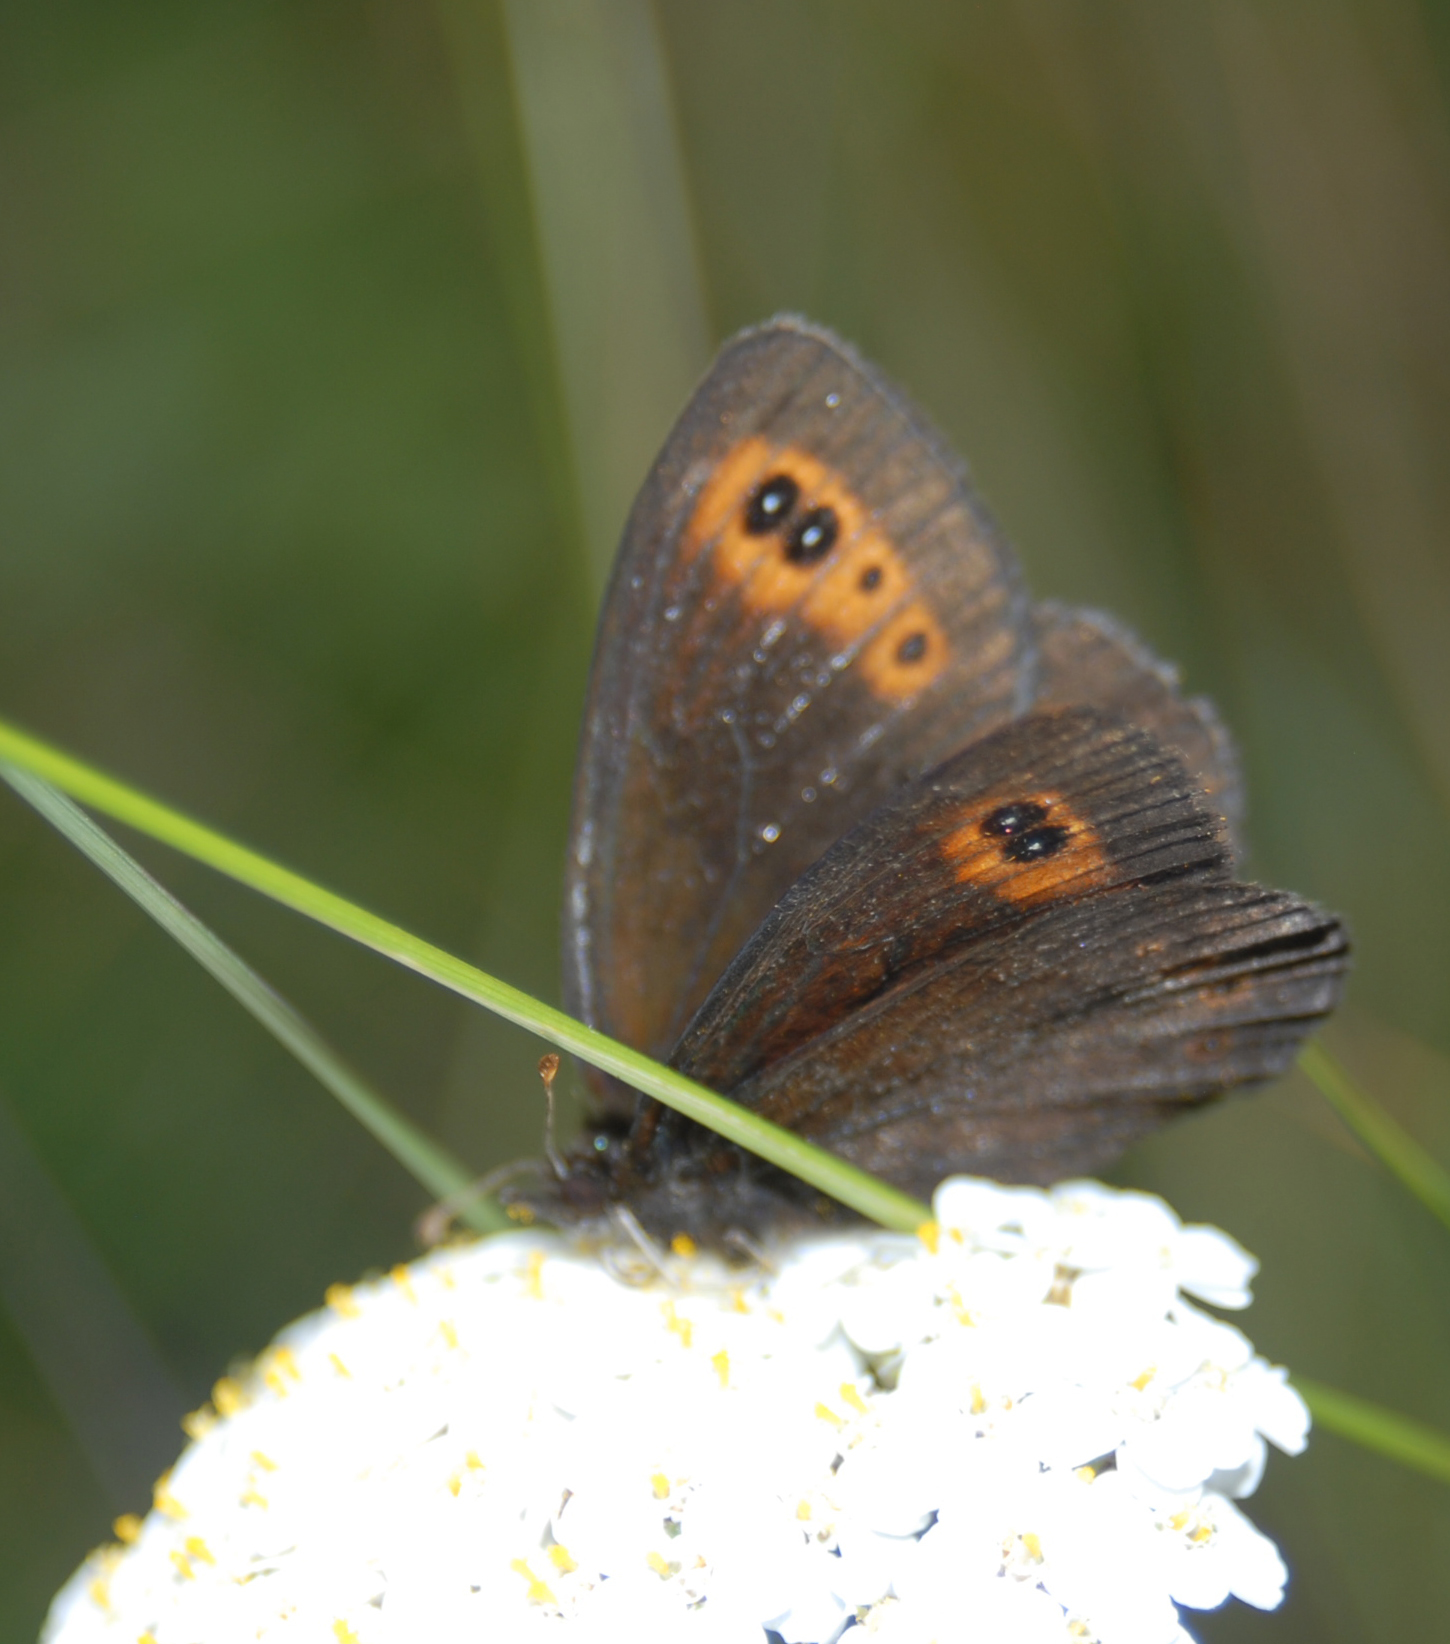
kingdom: Animalia
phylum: Arthropoda
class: Insecta
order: Lepidoptera
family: Nymphalidae
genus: Erebia
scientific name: Erebia epipsodea
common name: Common alpine
